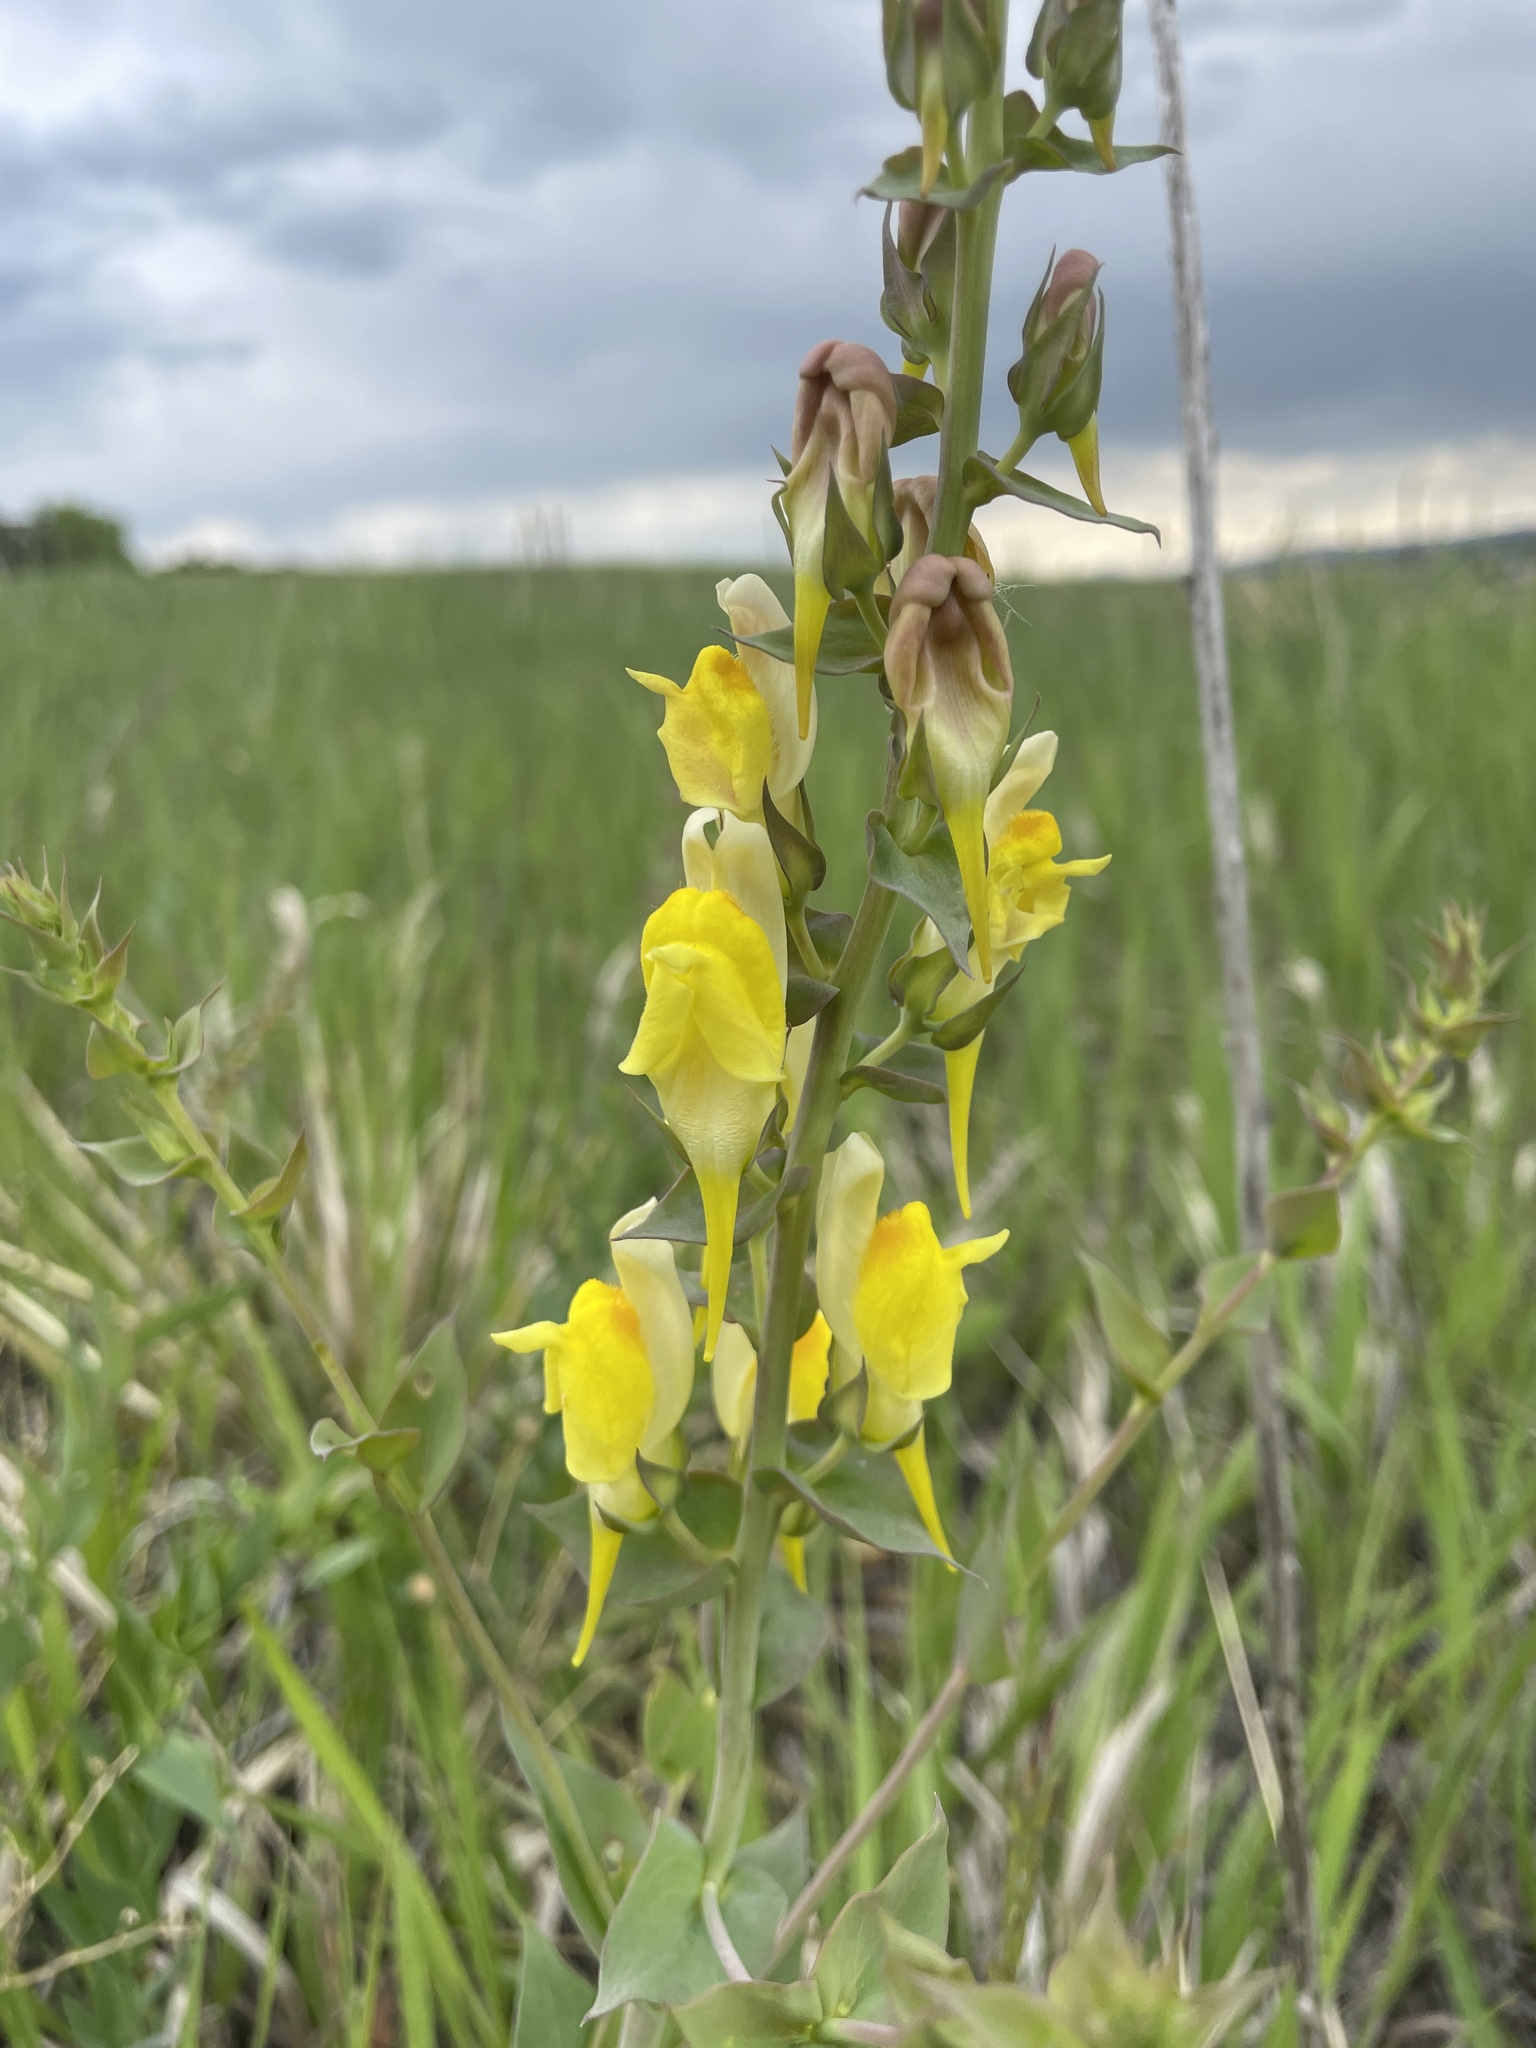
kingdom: Plantae
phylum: Tracheophyta
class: Magnoliopsida
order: Lamiales
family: Plantaginaceae
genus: Linaria
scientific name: Linaria dalmatica
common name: Dalmatian toadflax
